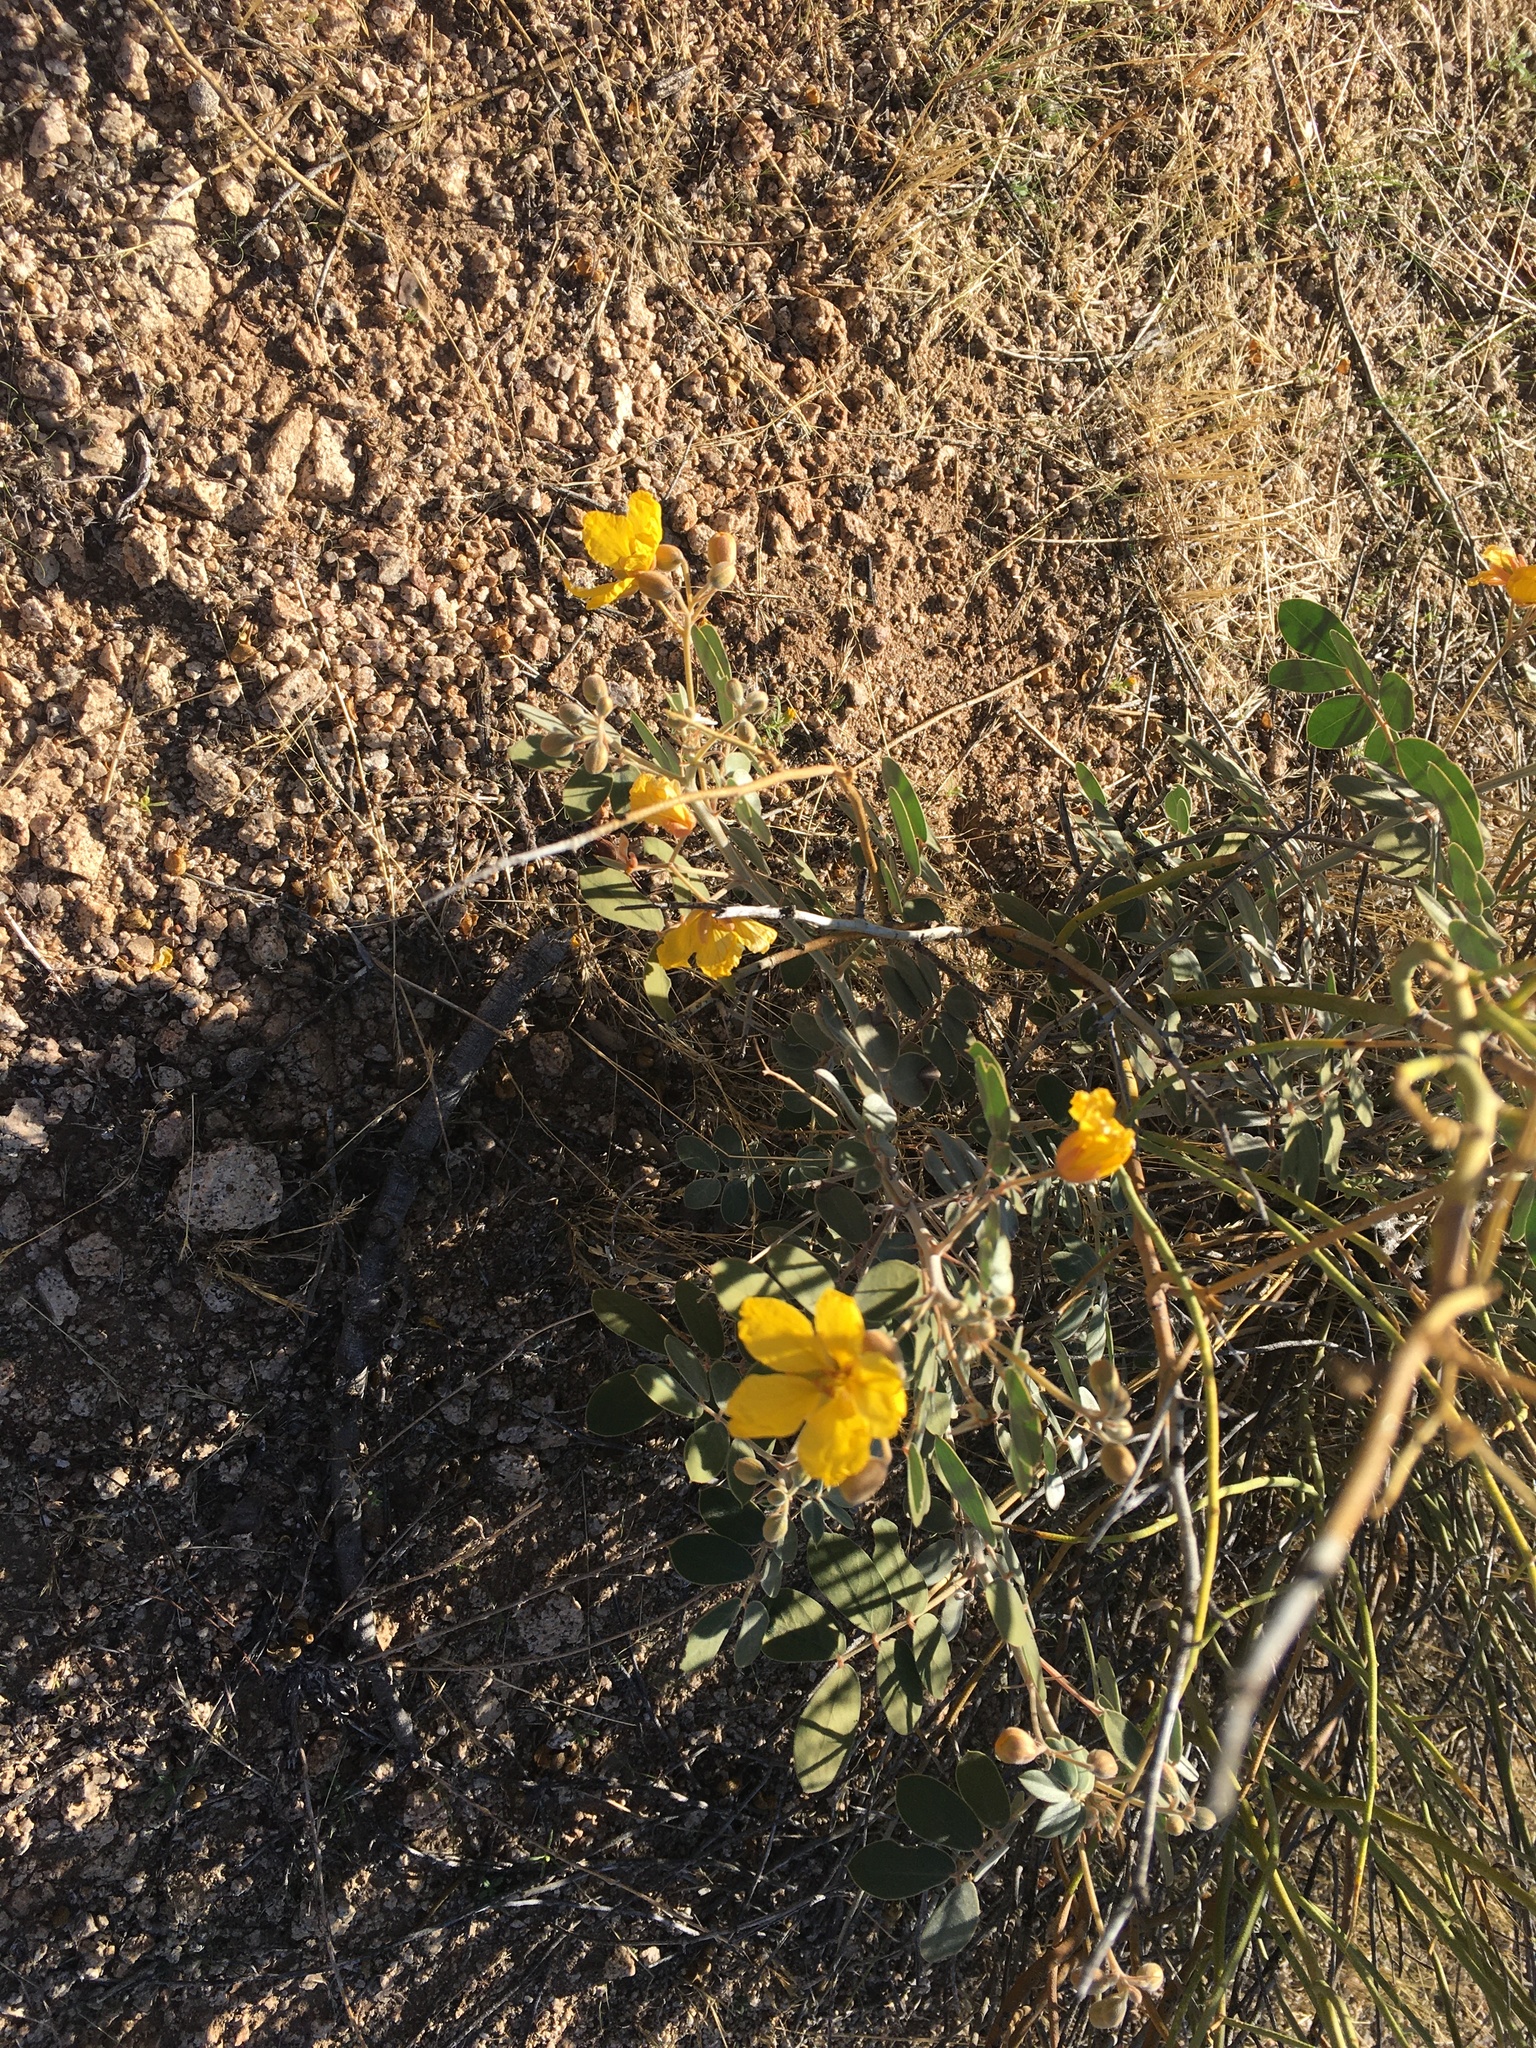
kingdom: Plantae
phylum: Tracheophyta
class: Magnoliopsida
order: Fabales
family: Fabaceae
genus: Senna
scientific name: Senna covesii
